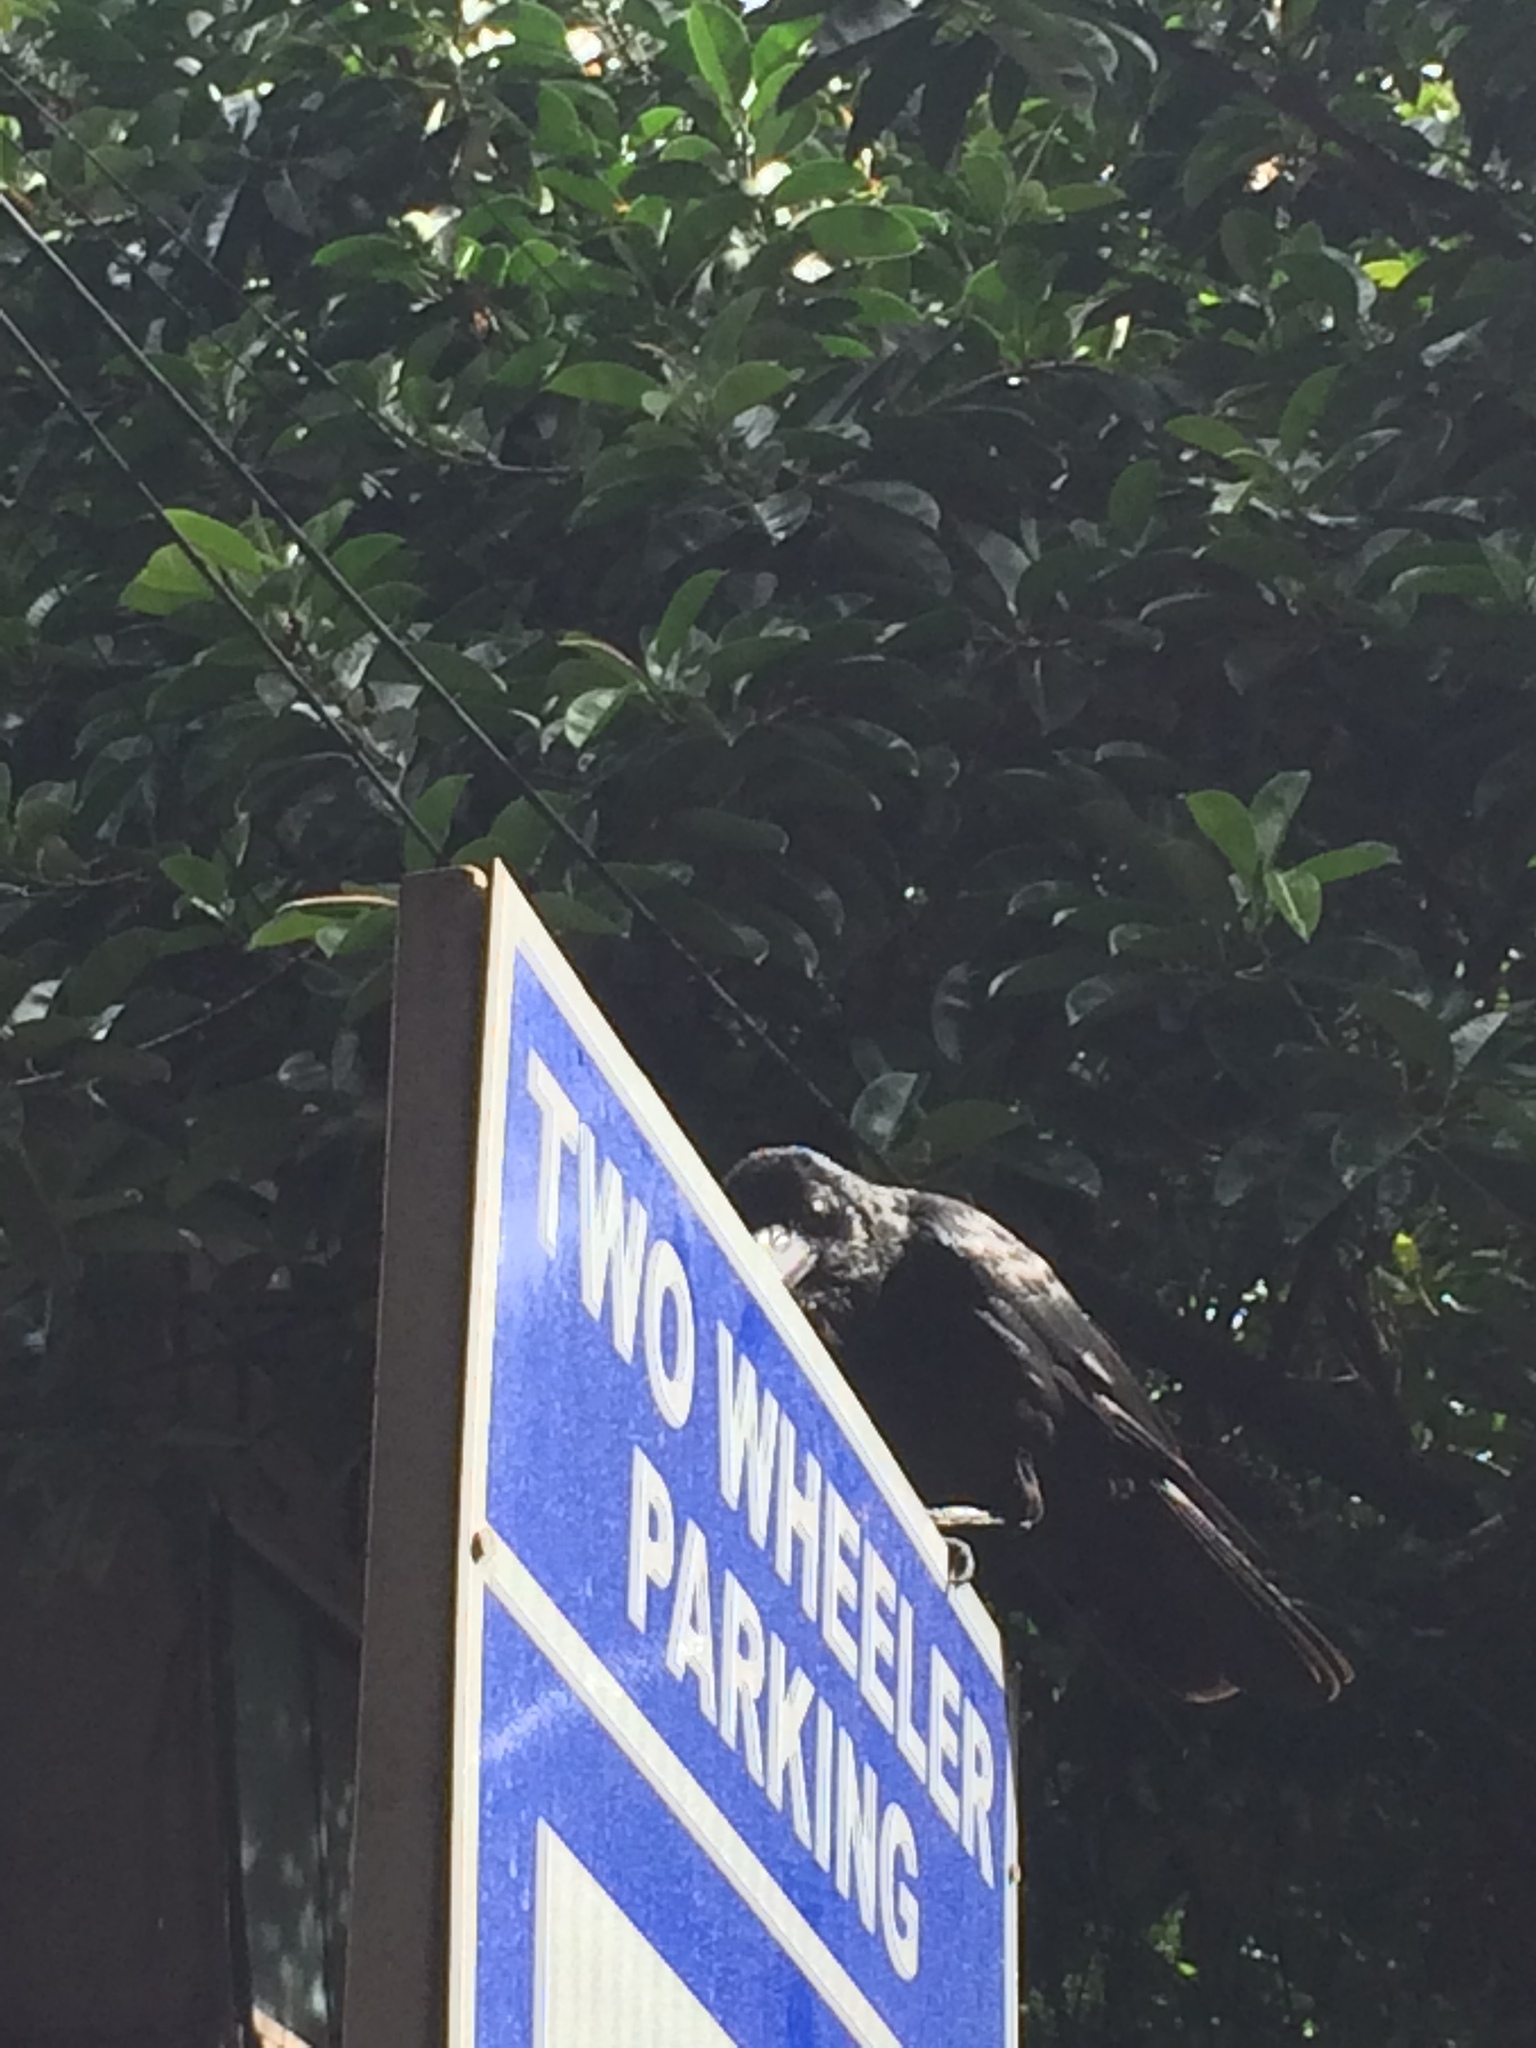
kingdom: Animalia
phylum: Chordata
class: Aves
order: Passeriformes
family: Corvidae
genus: Corvus
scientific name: Corvus macrorhynchos
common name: Large-billed crow
